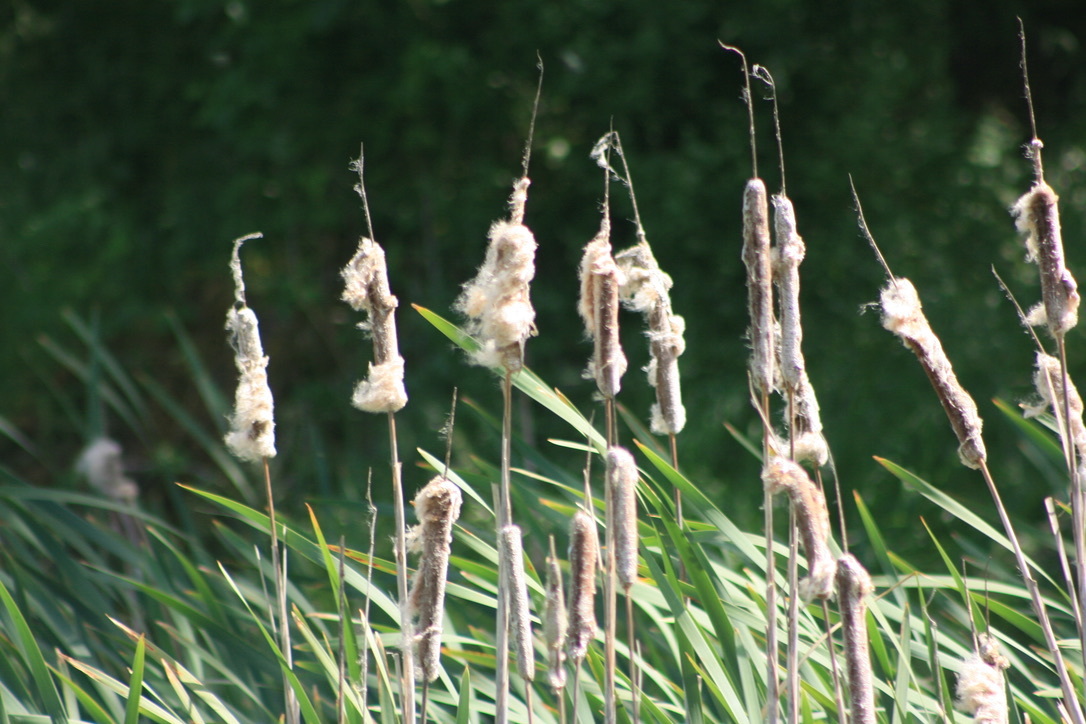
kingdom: Plantae
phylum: Tracheophyta
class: Liliopsida
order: Poales
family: Typhaceae
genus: Typha
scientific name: Typha latifolia
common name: Broadleaf cattail
